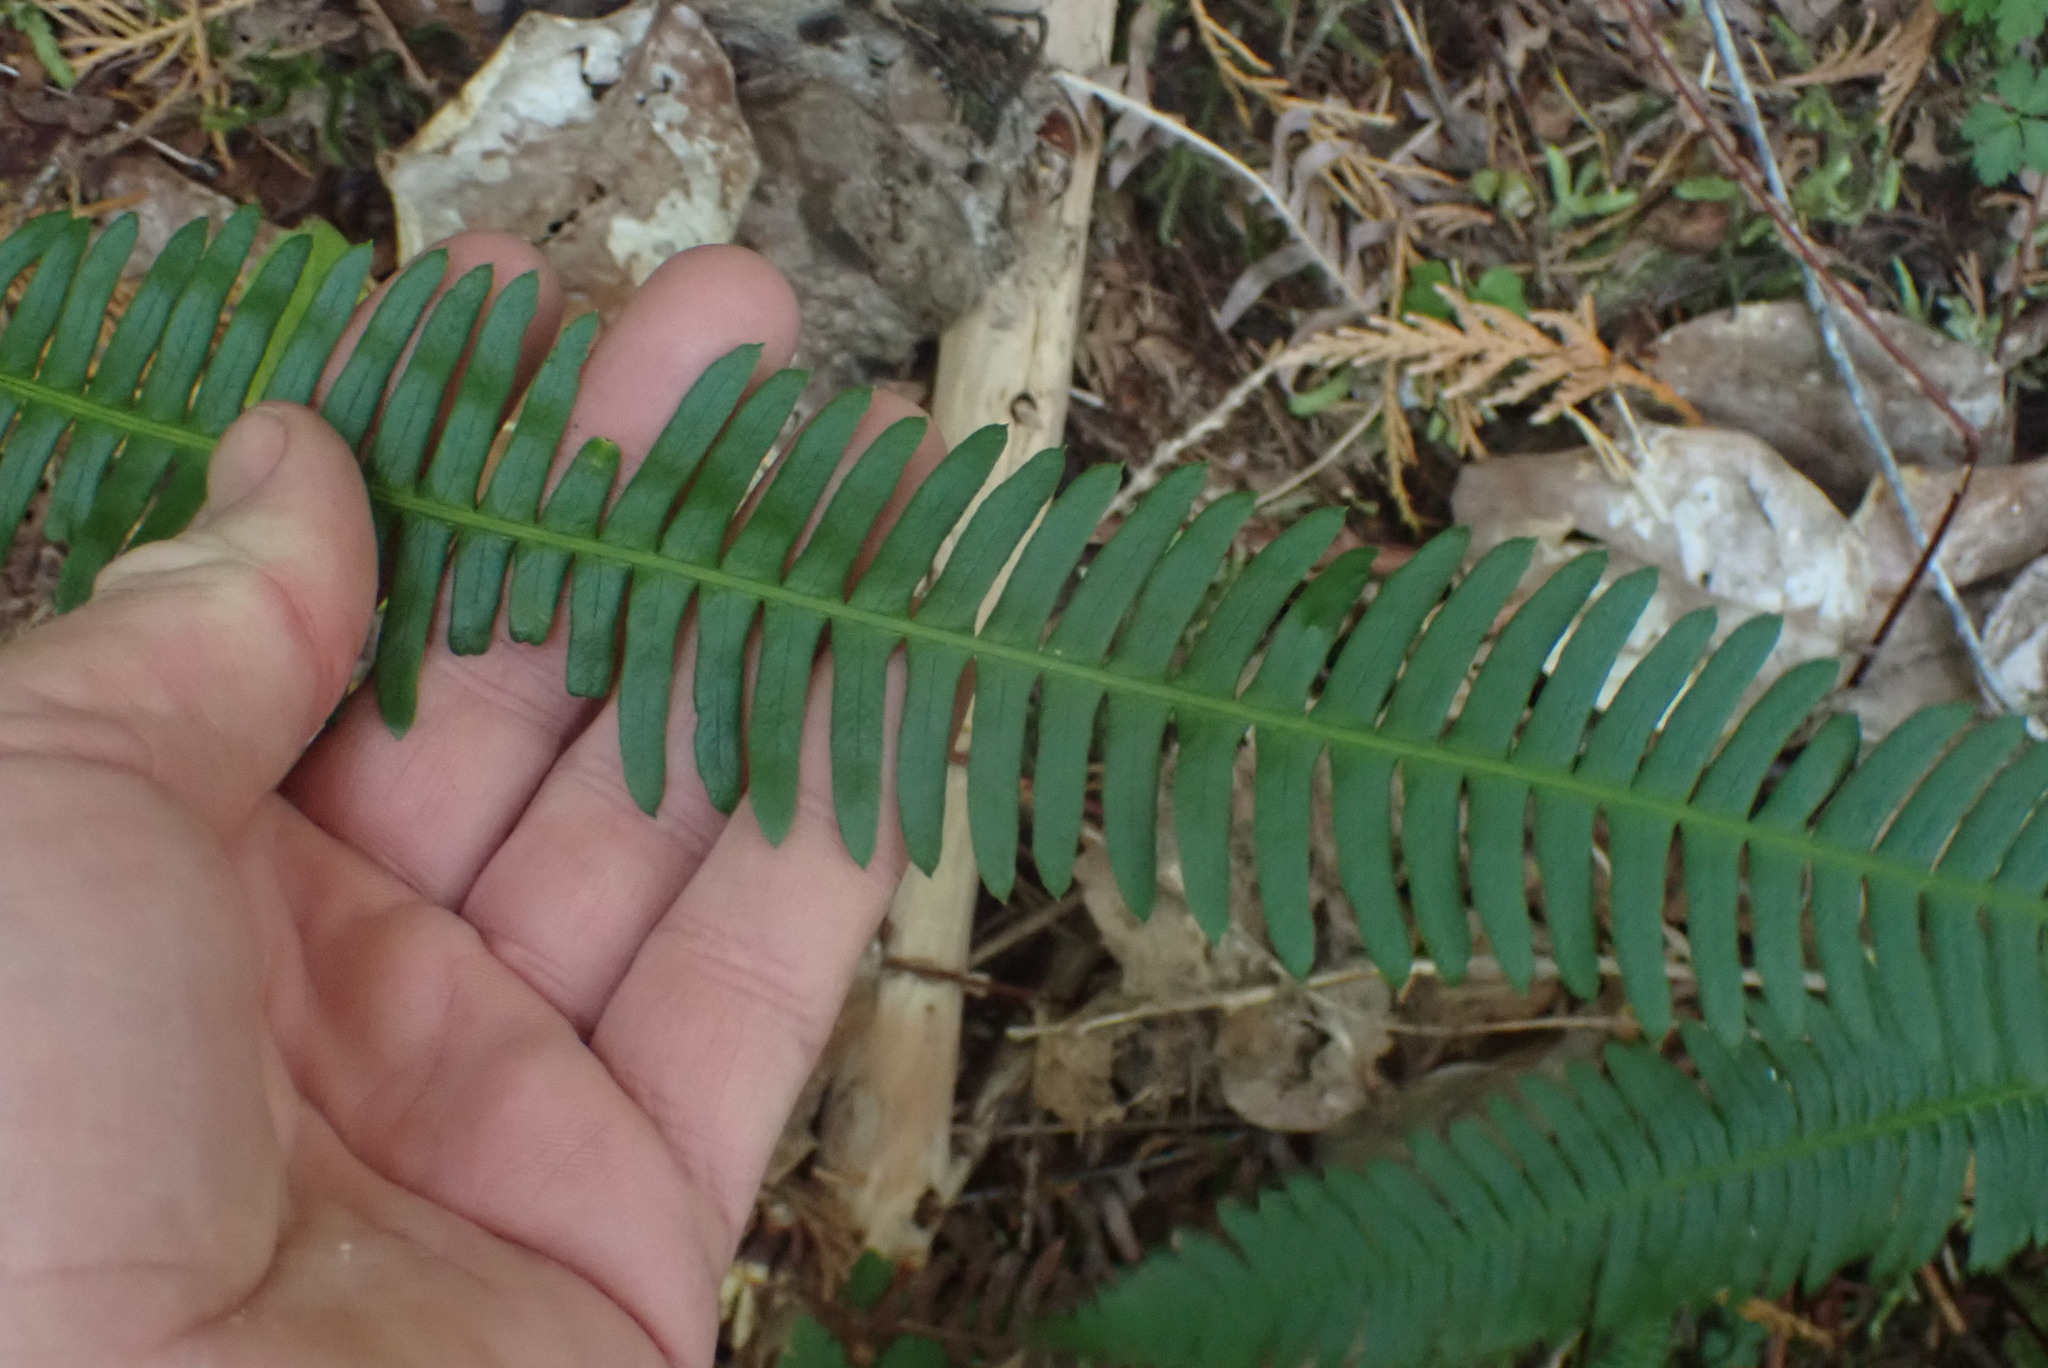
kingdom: Plantae
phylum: Tracheophyta
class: Polypodiopsida
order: Polypodiales
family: Blechnaceae
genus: Struthiopteris
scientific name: Struthiopteris spicant
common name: Deer fern
